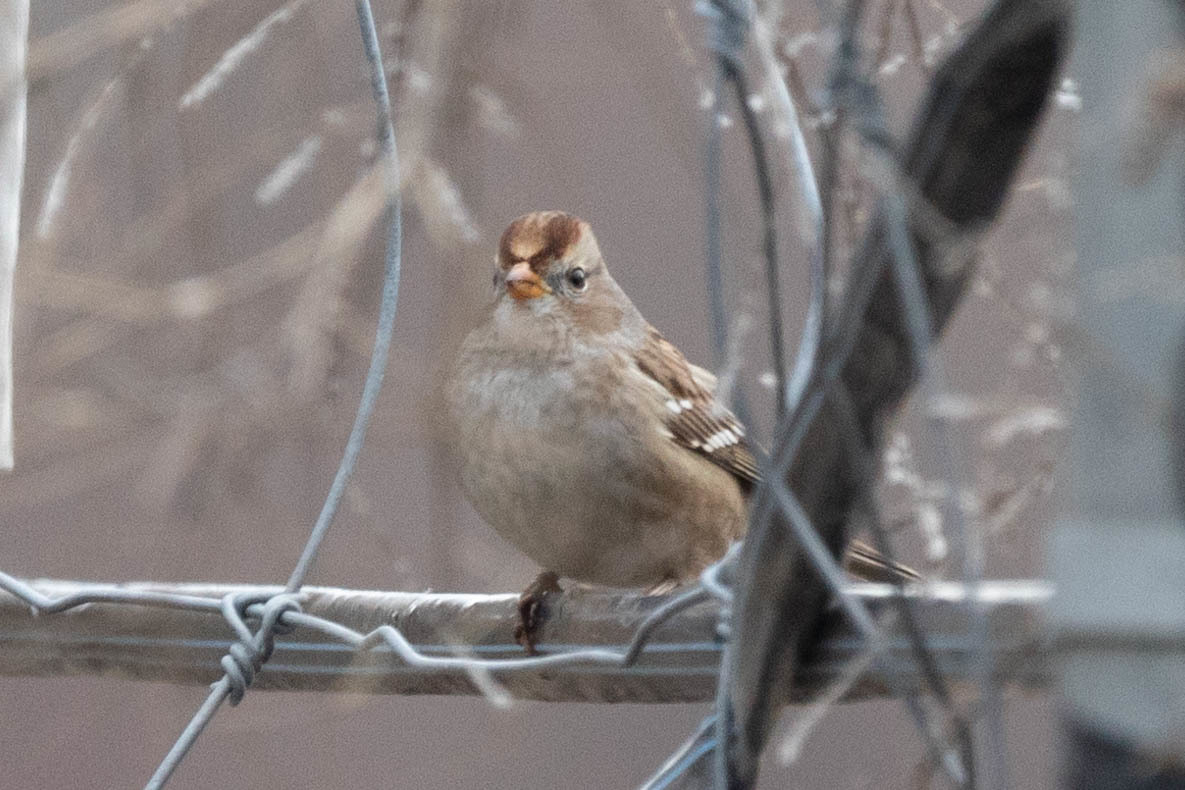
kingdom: Animalia
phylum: Chordata
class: Aves
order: Passeriformes
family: Passerellidae
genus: Zonotrichia
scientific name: Zonotrichia leucophrys
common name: White-crowned sparrow
